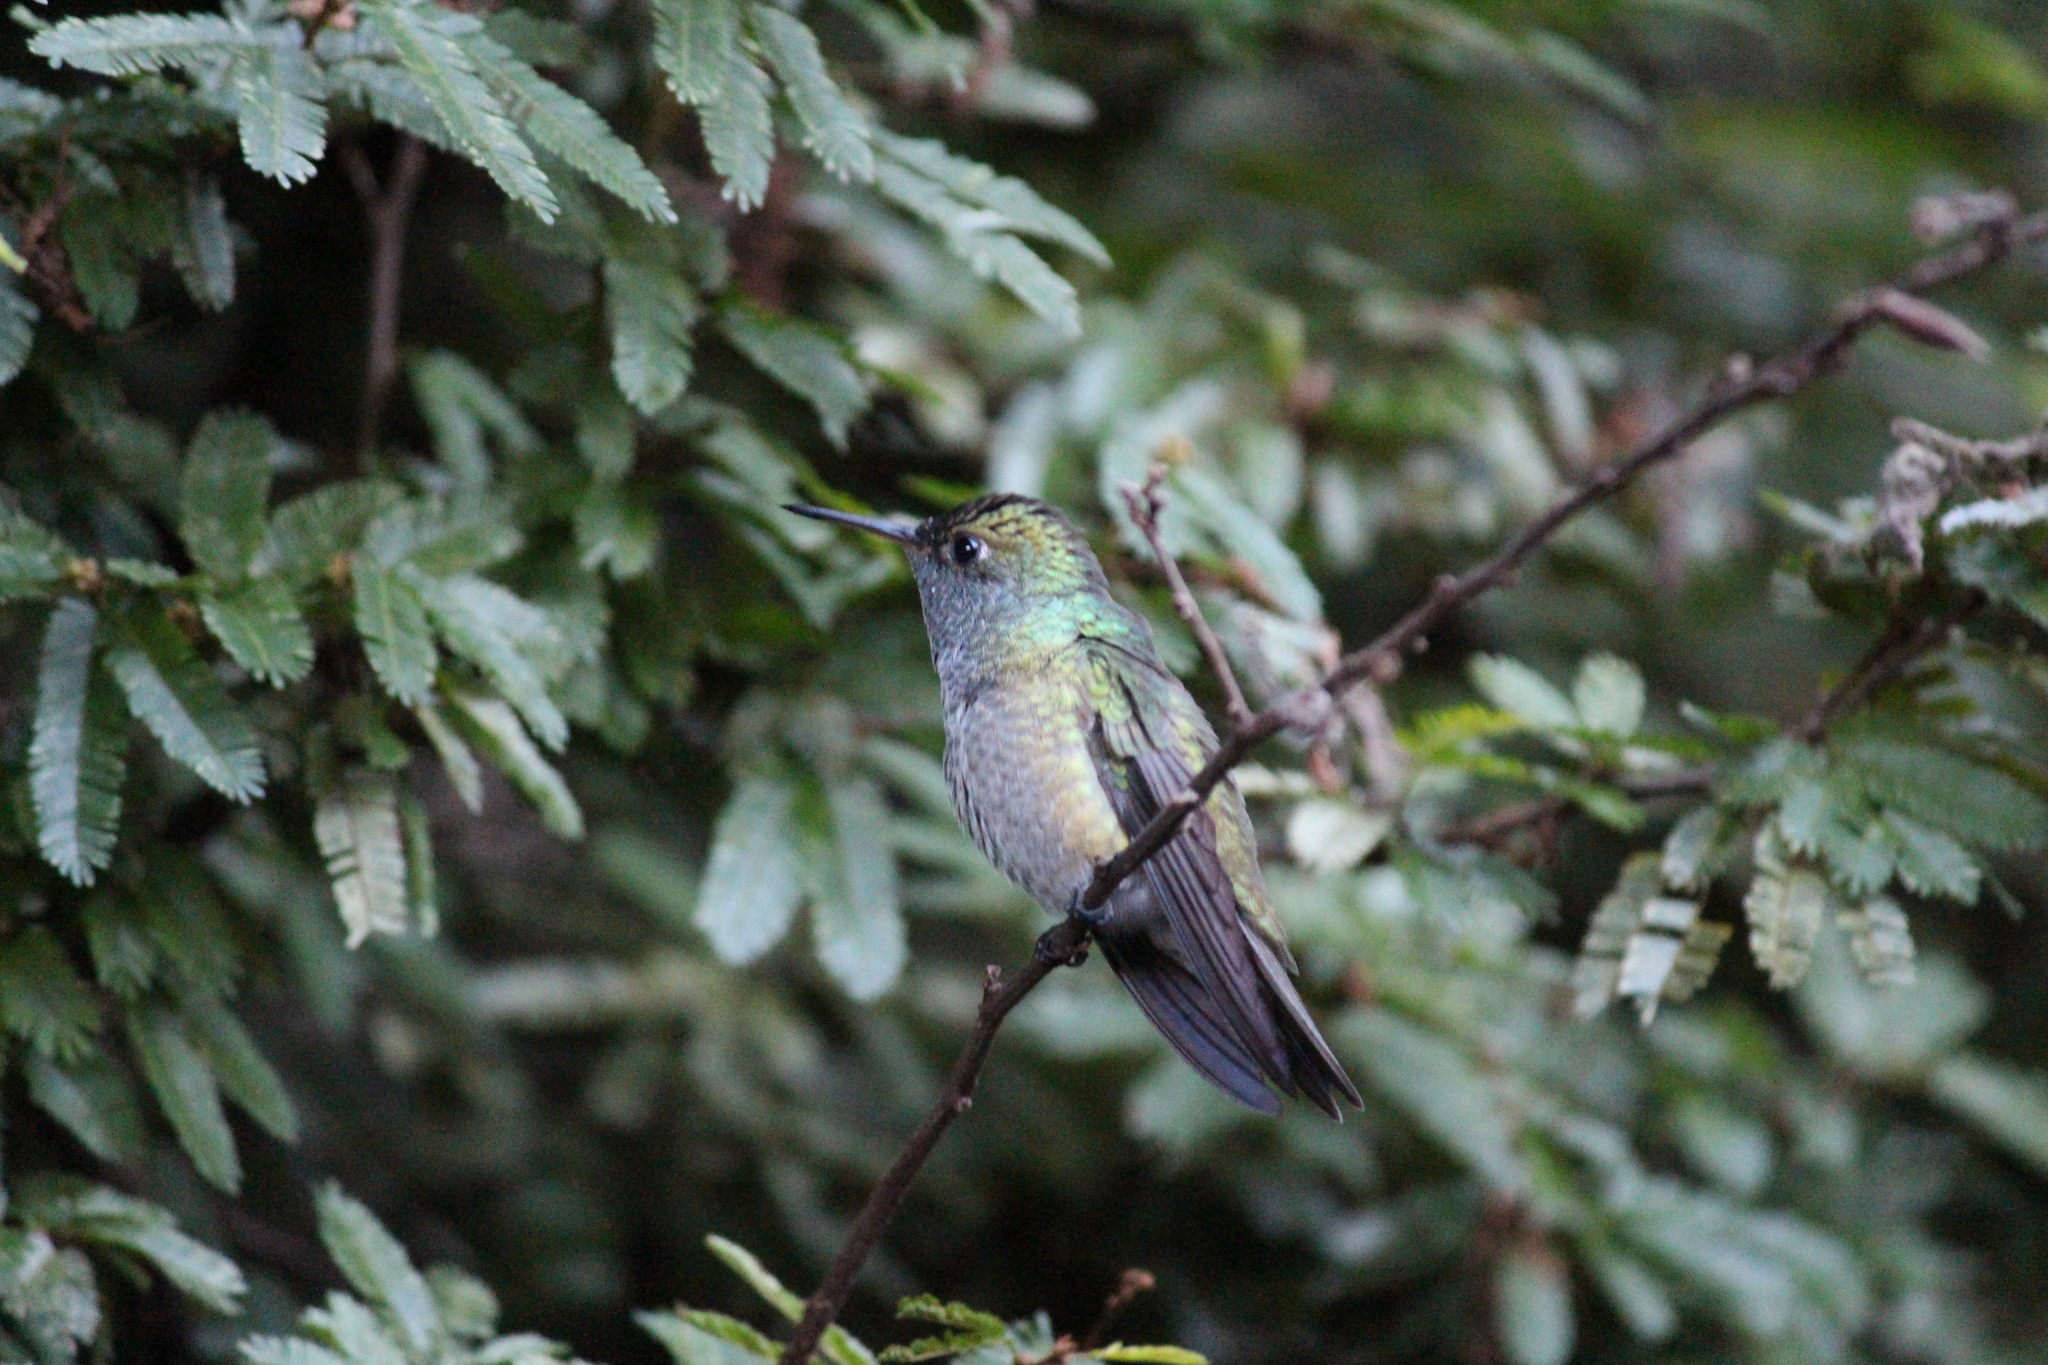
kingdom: Animalia
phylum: Chordata
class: Aves
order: Apodiformes
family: Trochilidae
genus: Chrysuronia
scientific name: Chrysuronia versicolor
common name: Versicolored emerald
